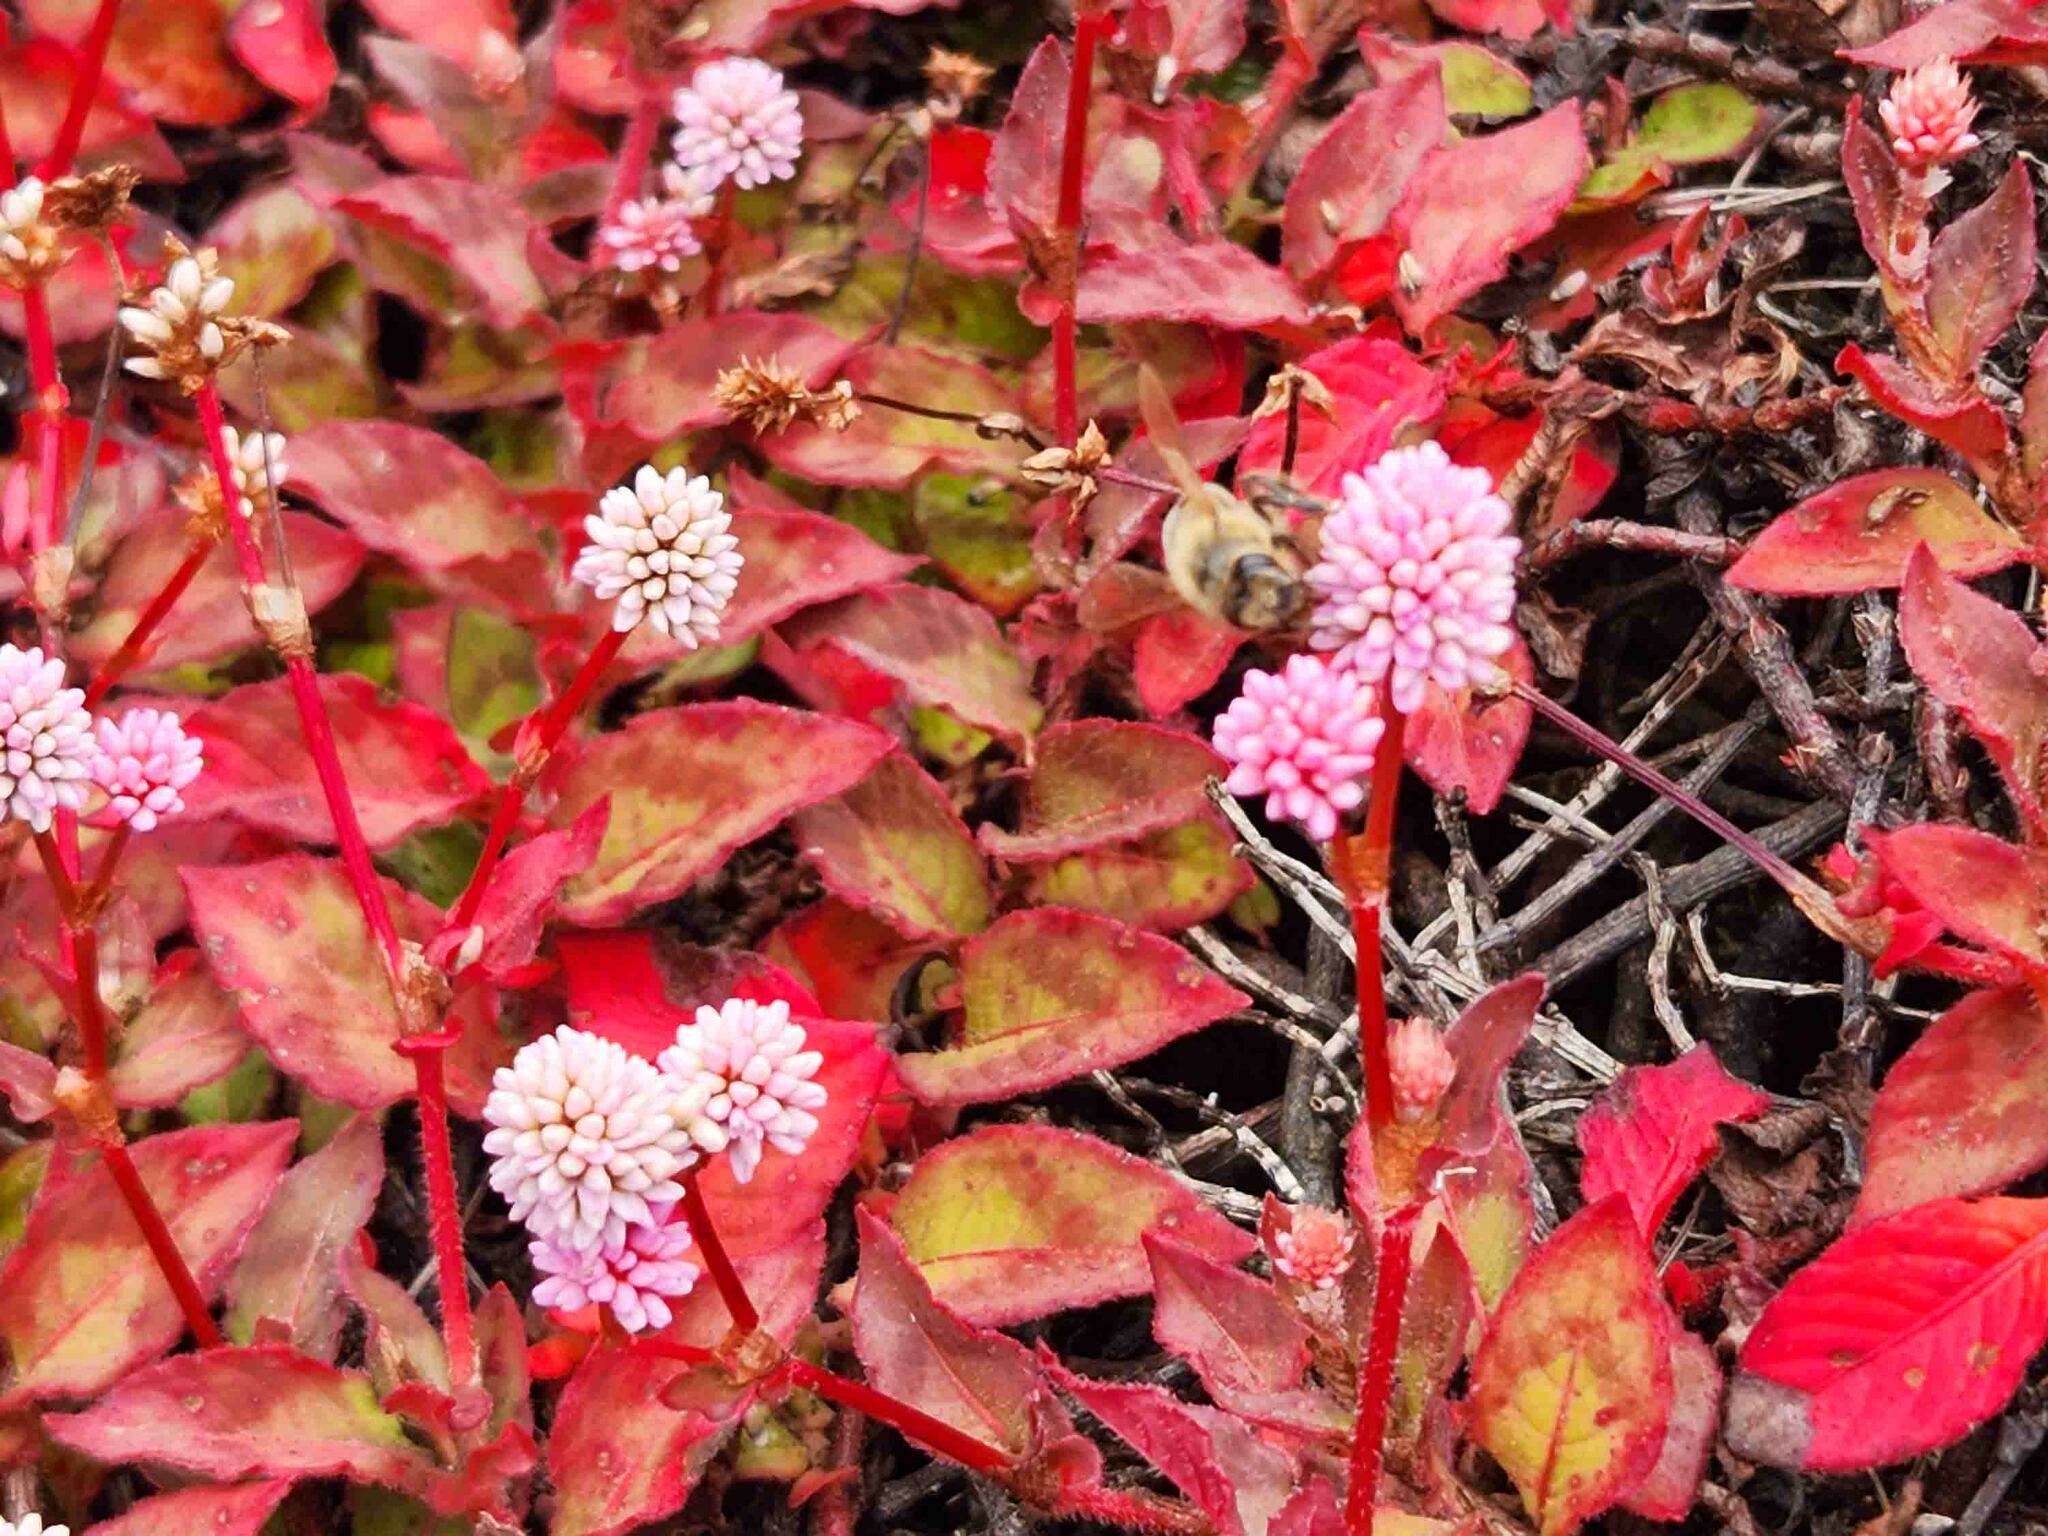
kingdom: Plantae
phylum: Tracheophyta
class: Magnoliopsida
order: Caryophyllales
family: Polygonaceae
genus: Persicaria
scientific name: Persicaria capitata
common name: Pinkhead smartweed
